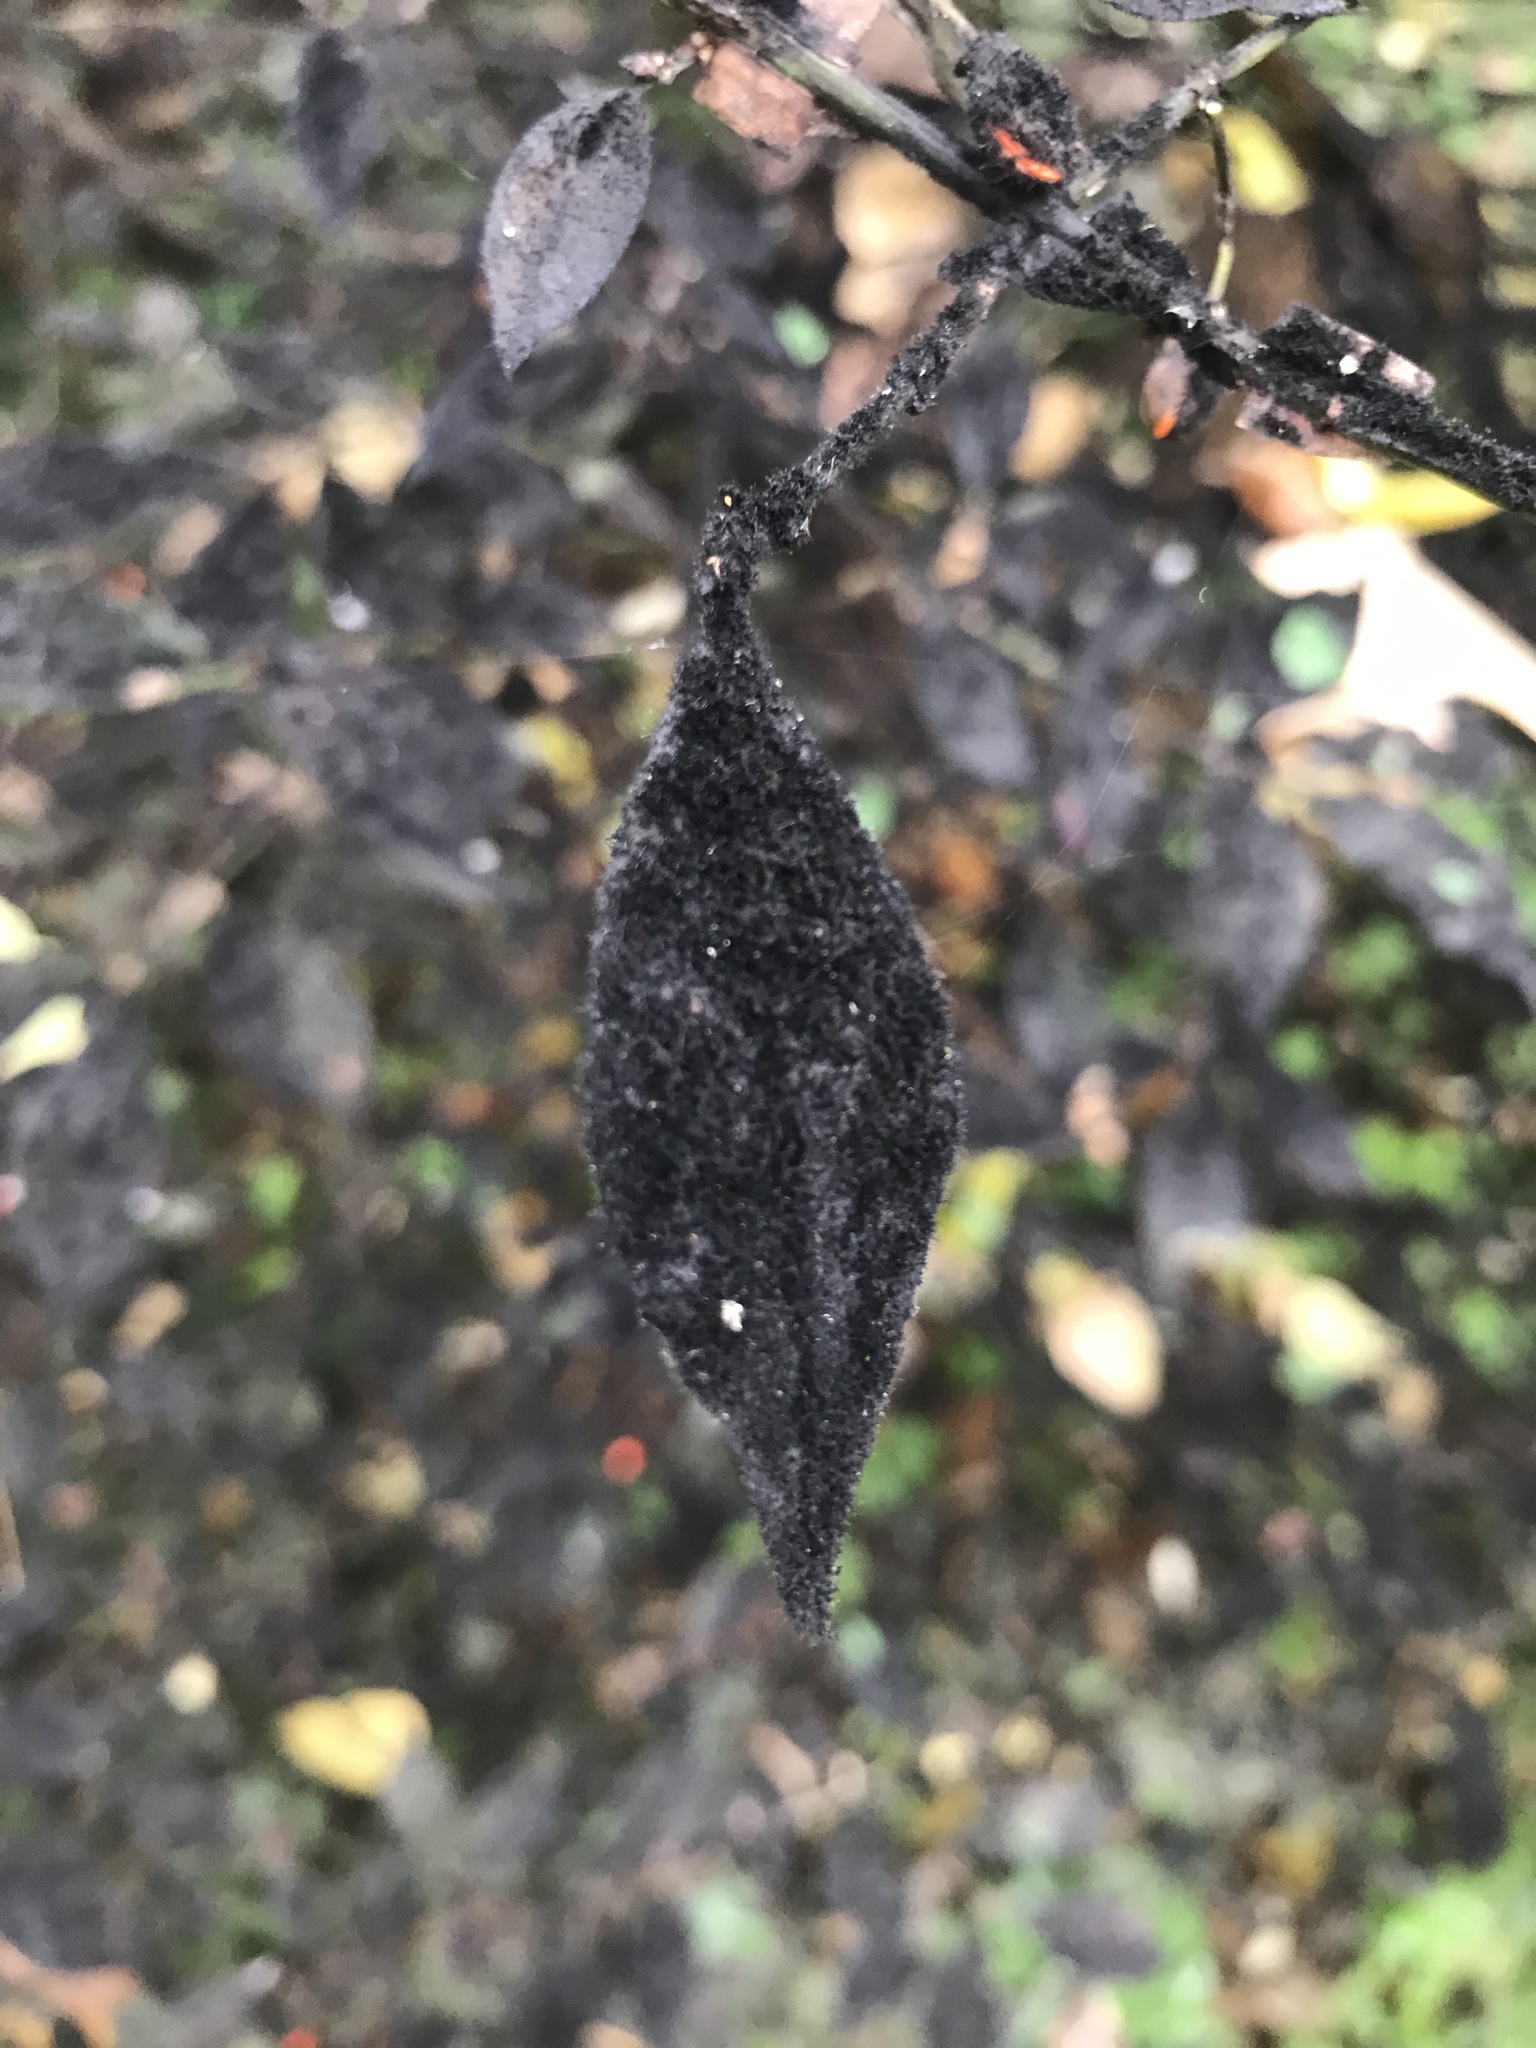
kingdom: Plantae
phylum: Tracheophyta
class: Magnoliopsida
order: Celastrales
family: Celastraceae
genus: Euonymus
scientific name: Euonymus alatus
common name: Winged euonymus
